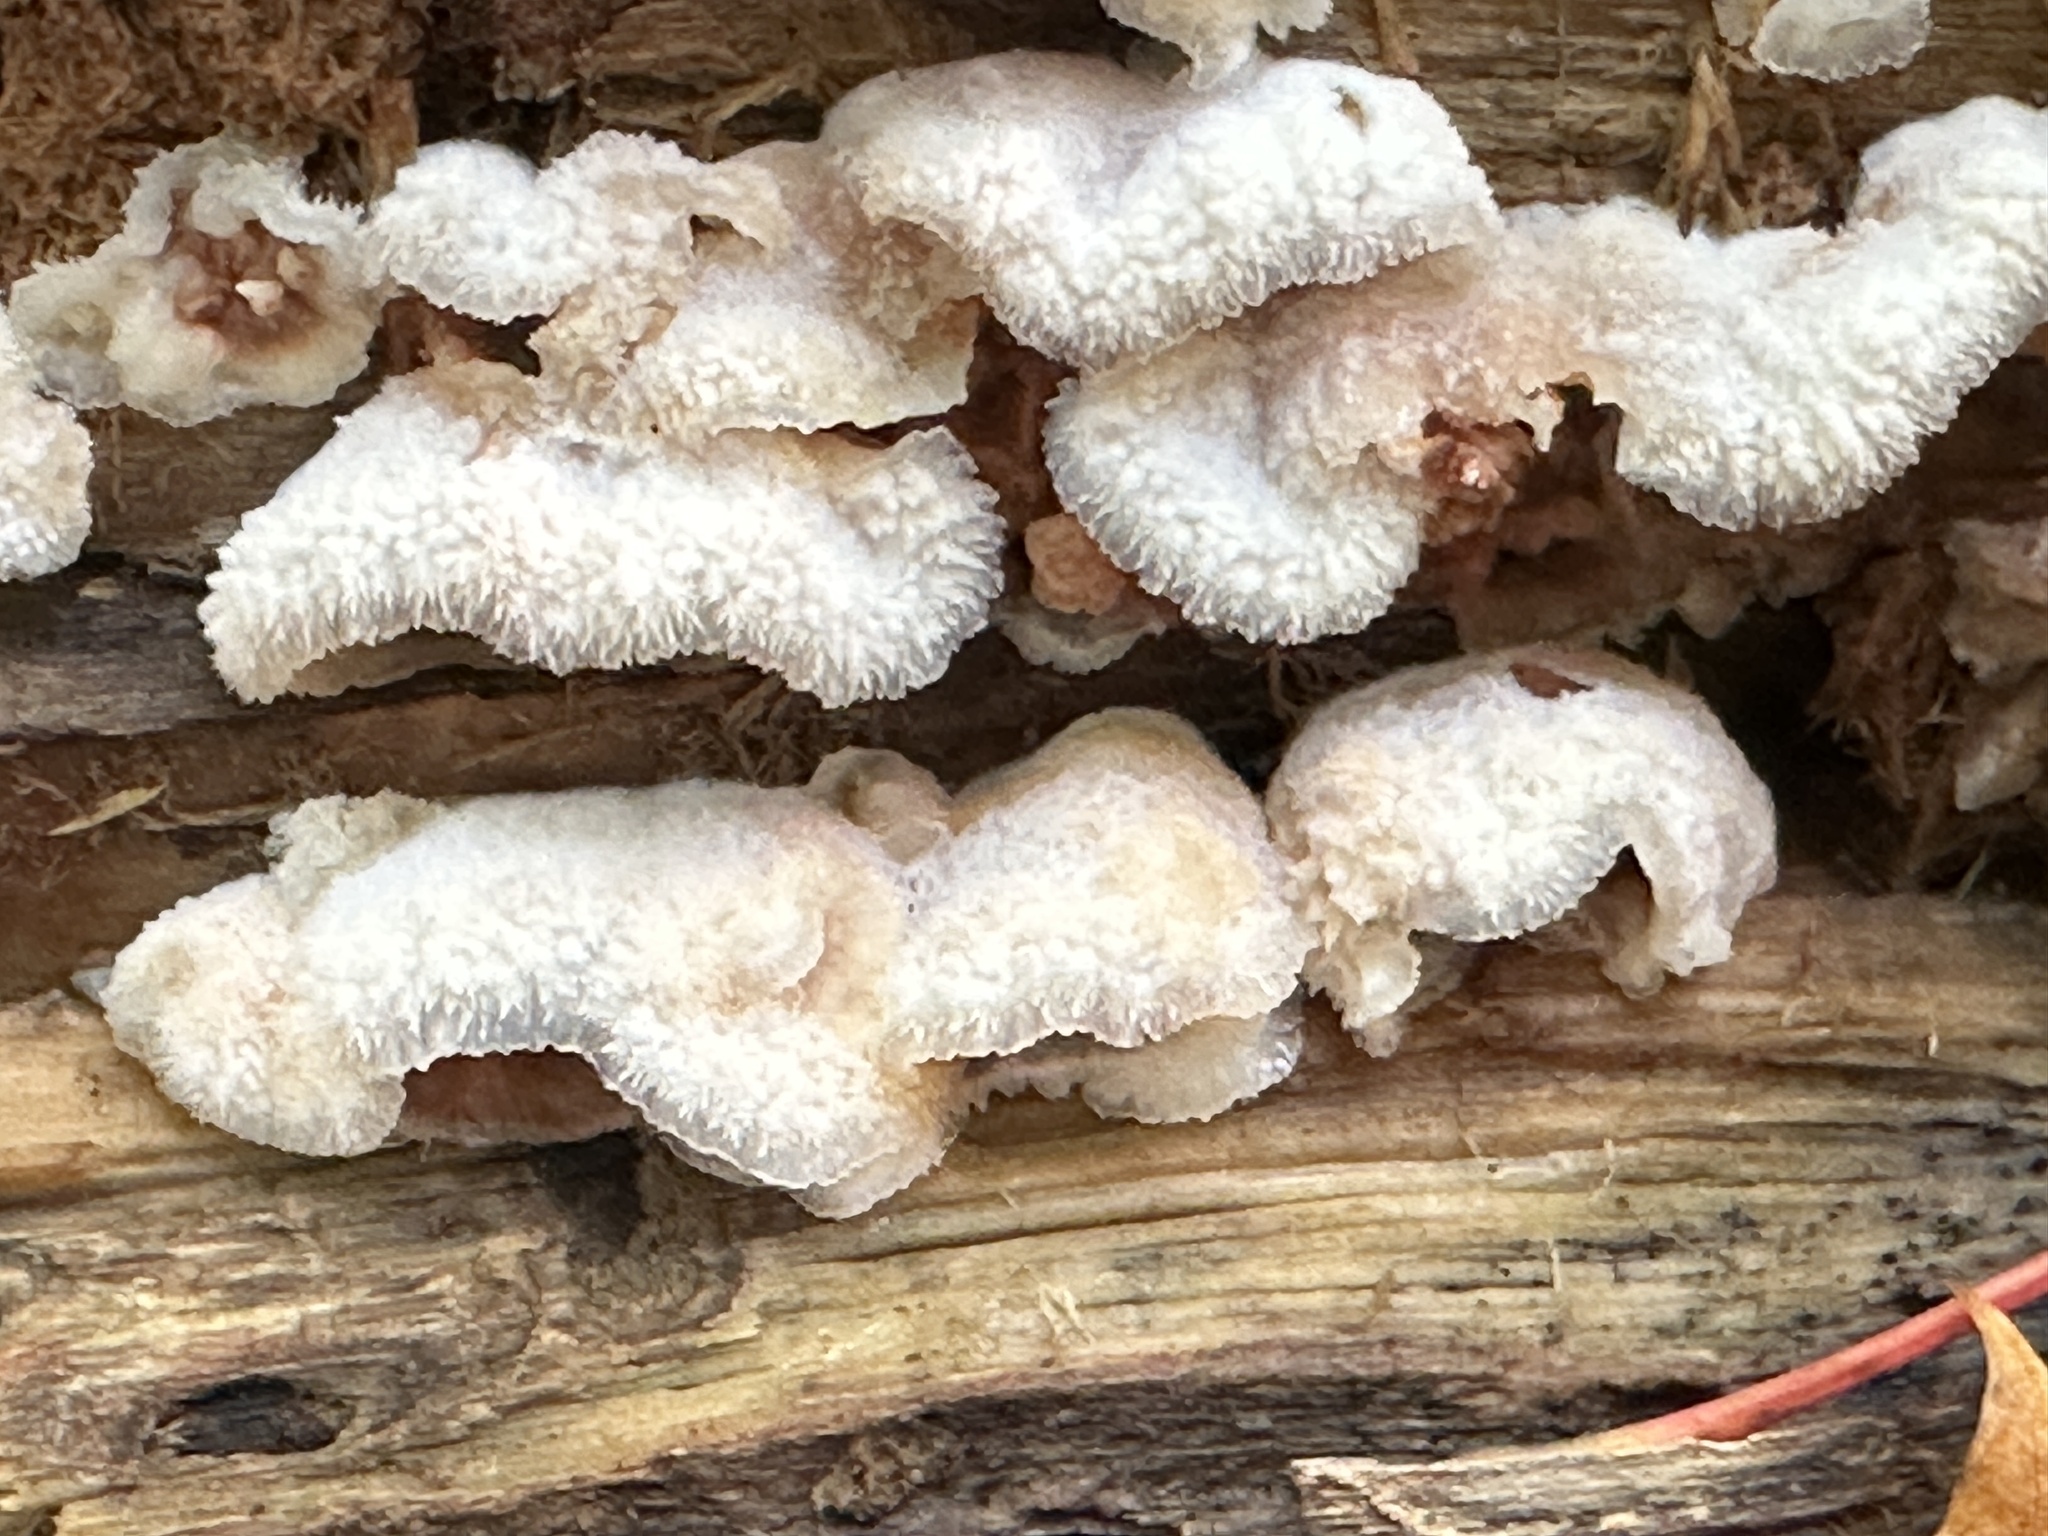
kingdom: Fungi
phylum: Basidiomycota
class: Agaricomycetes
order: Polyporales
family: Meruliaceae
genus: Phlebia
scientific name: Phlebia tremellosa
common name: Jelly rot
